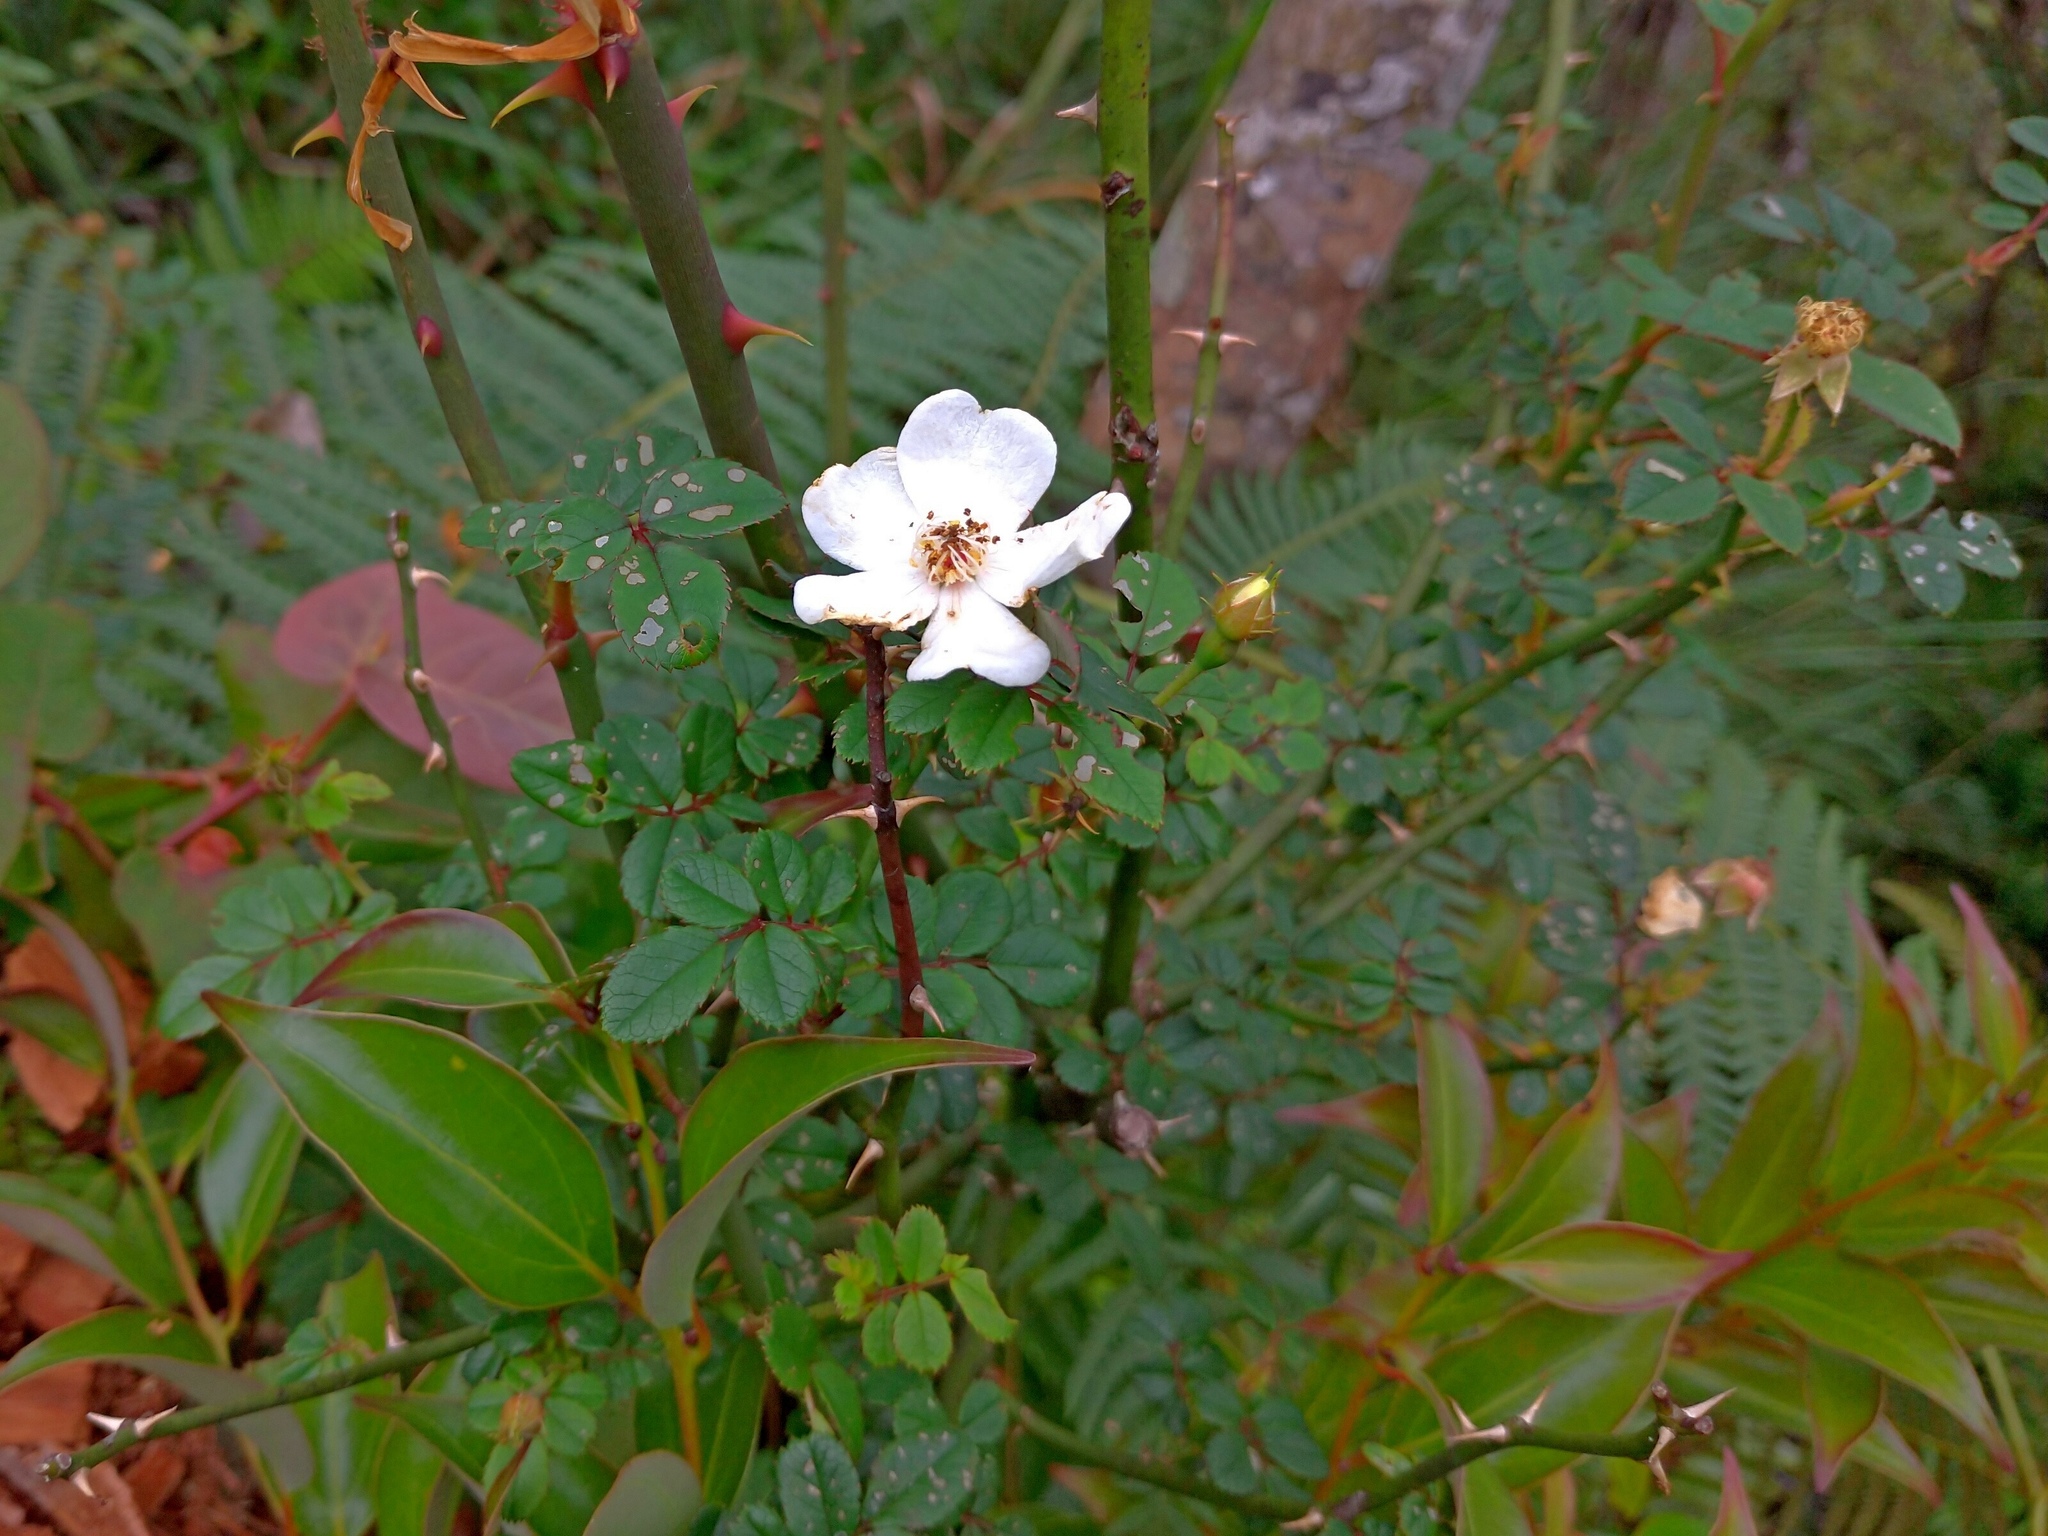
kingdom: Plantae
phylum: Tracheophyta
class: Magnoliopsida
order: Rosales
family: Rosaceae
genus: Rosa
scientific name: Rosa pricei
